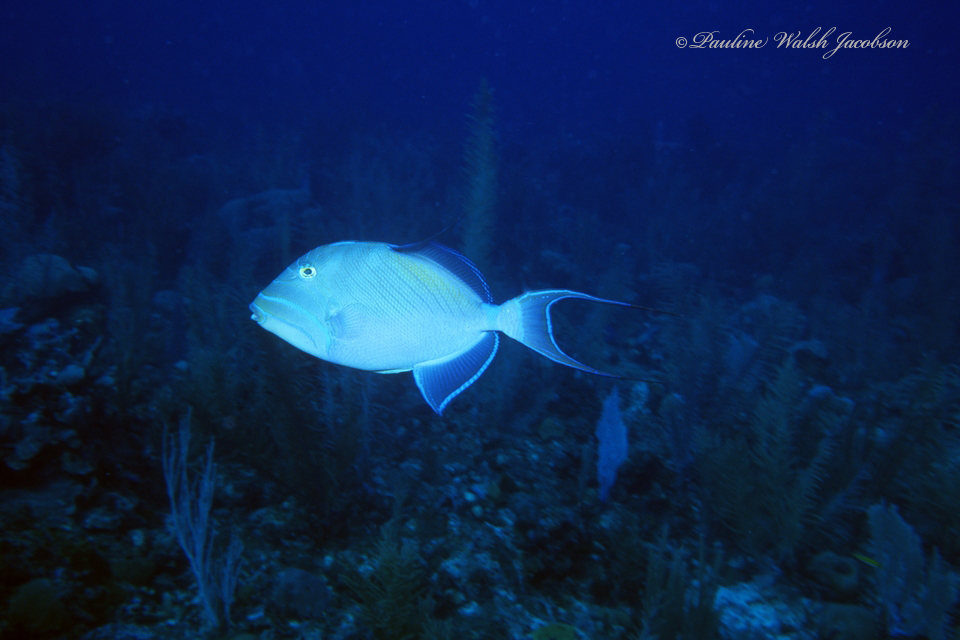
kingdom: Animalia
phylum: Chordata
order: Tetraodontiformes
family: Balistidae
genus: Balistes
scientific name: Balistes vetula
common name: Queen triggerfish
